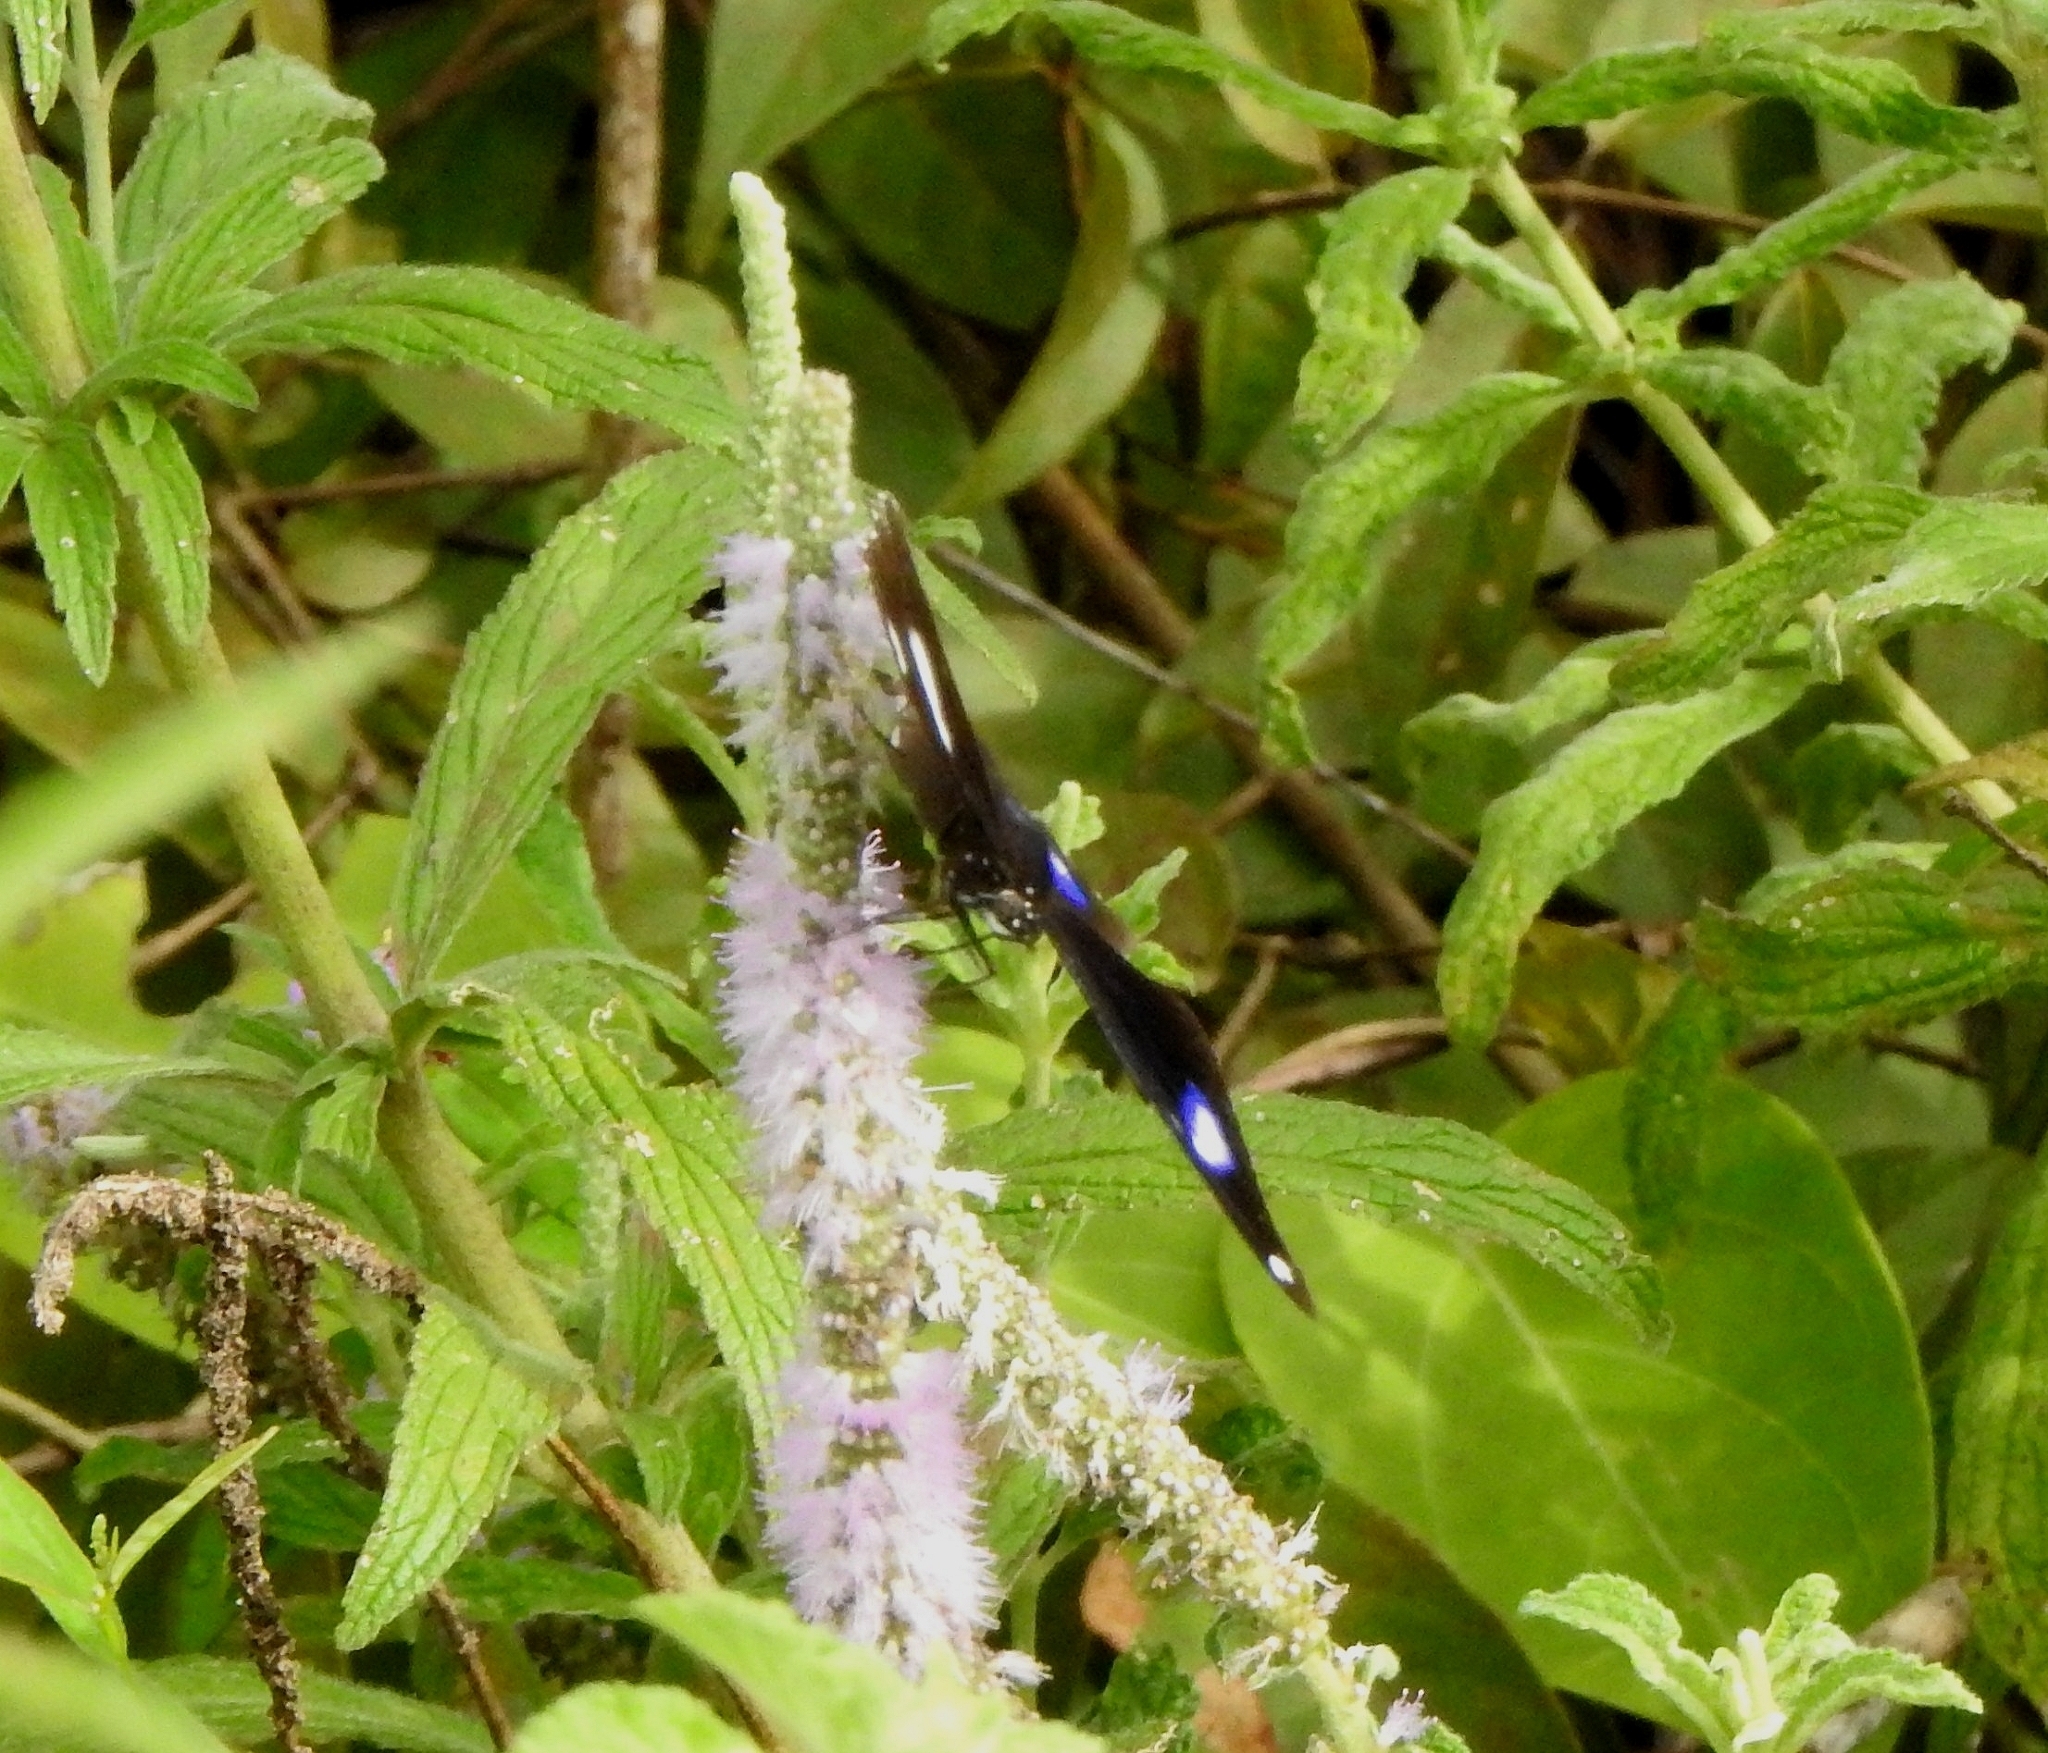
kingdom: Animalia
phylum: Arthropoda
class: Insecta
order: Lepidoptera
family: Nymphalidae
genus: Hypolimnas
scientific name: Hypolimnas bolina
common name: Great eggfly
